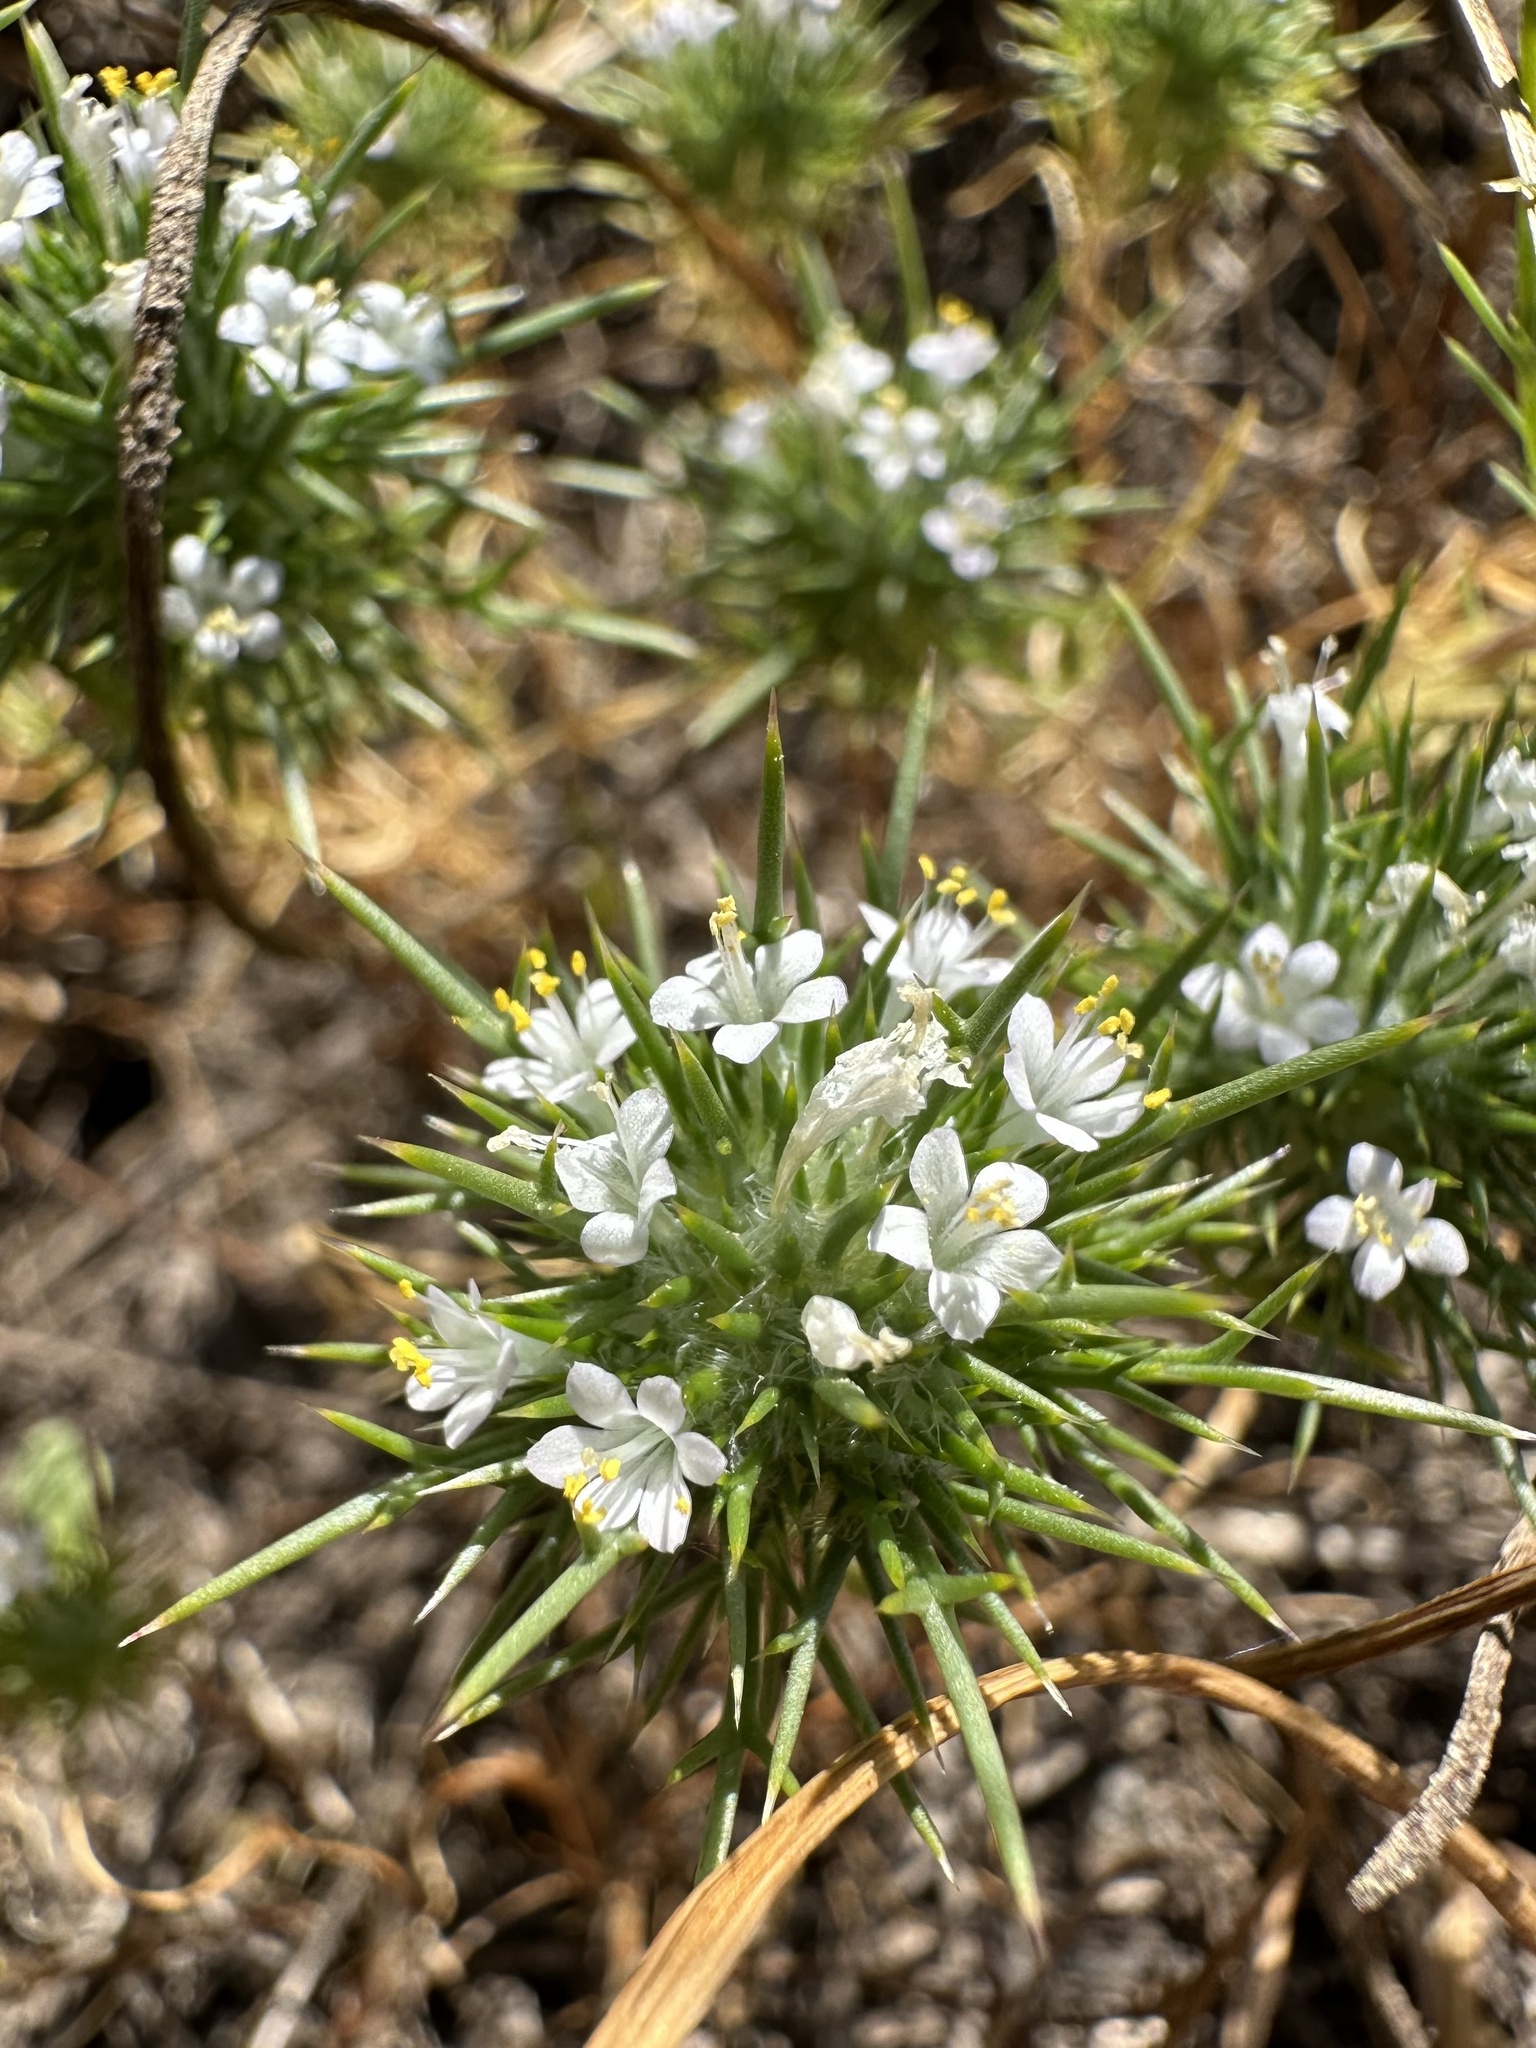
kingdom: Plantae
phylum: Tracheophyta
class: Magnoliopsida
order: Ericales
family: Polemoniaceae
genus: Navarretia
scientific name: Navarretia intertexta
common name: Needle-leaved navarretia
